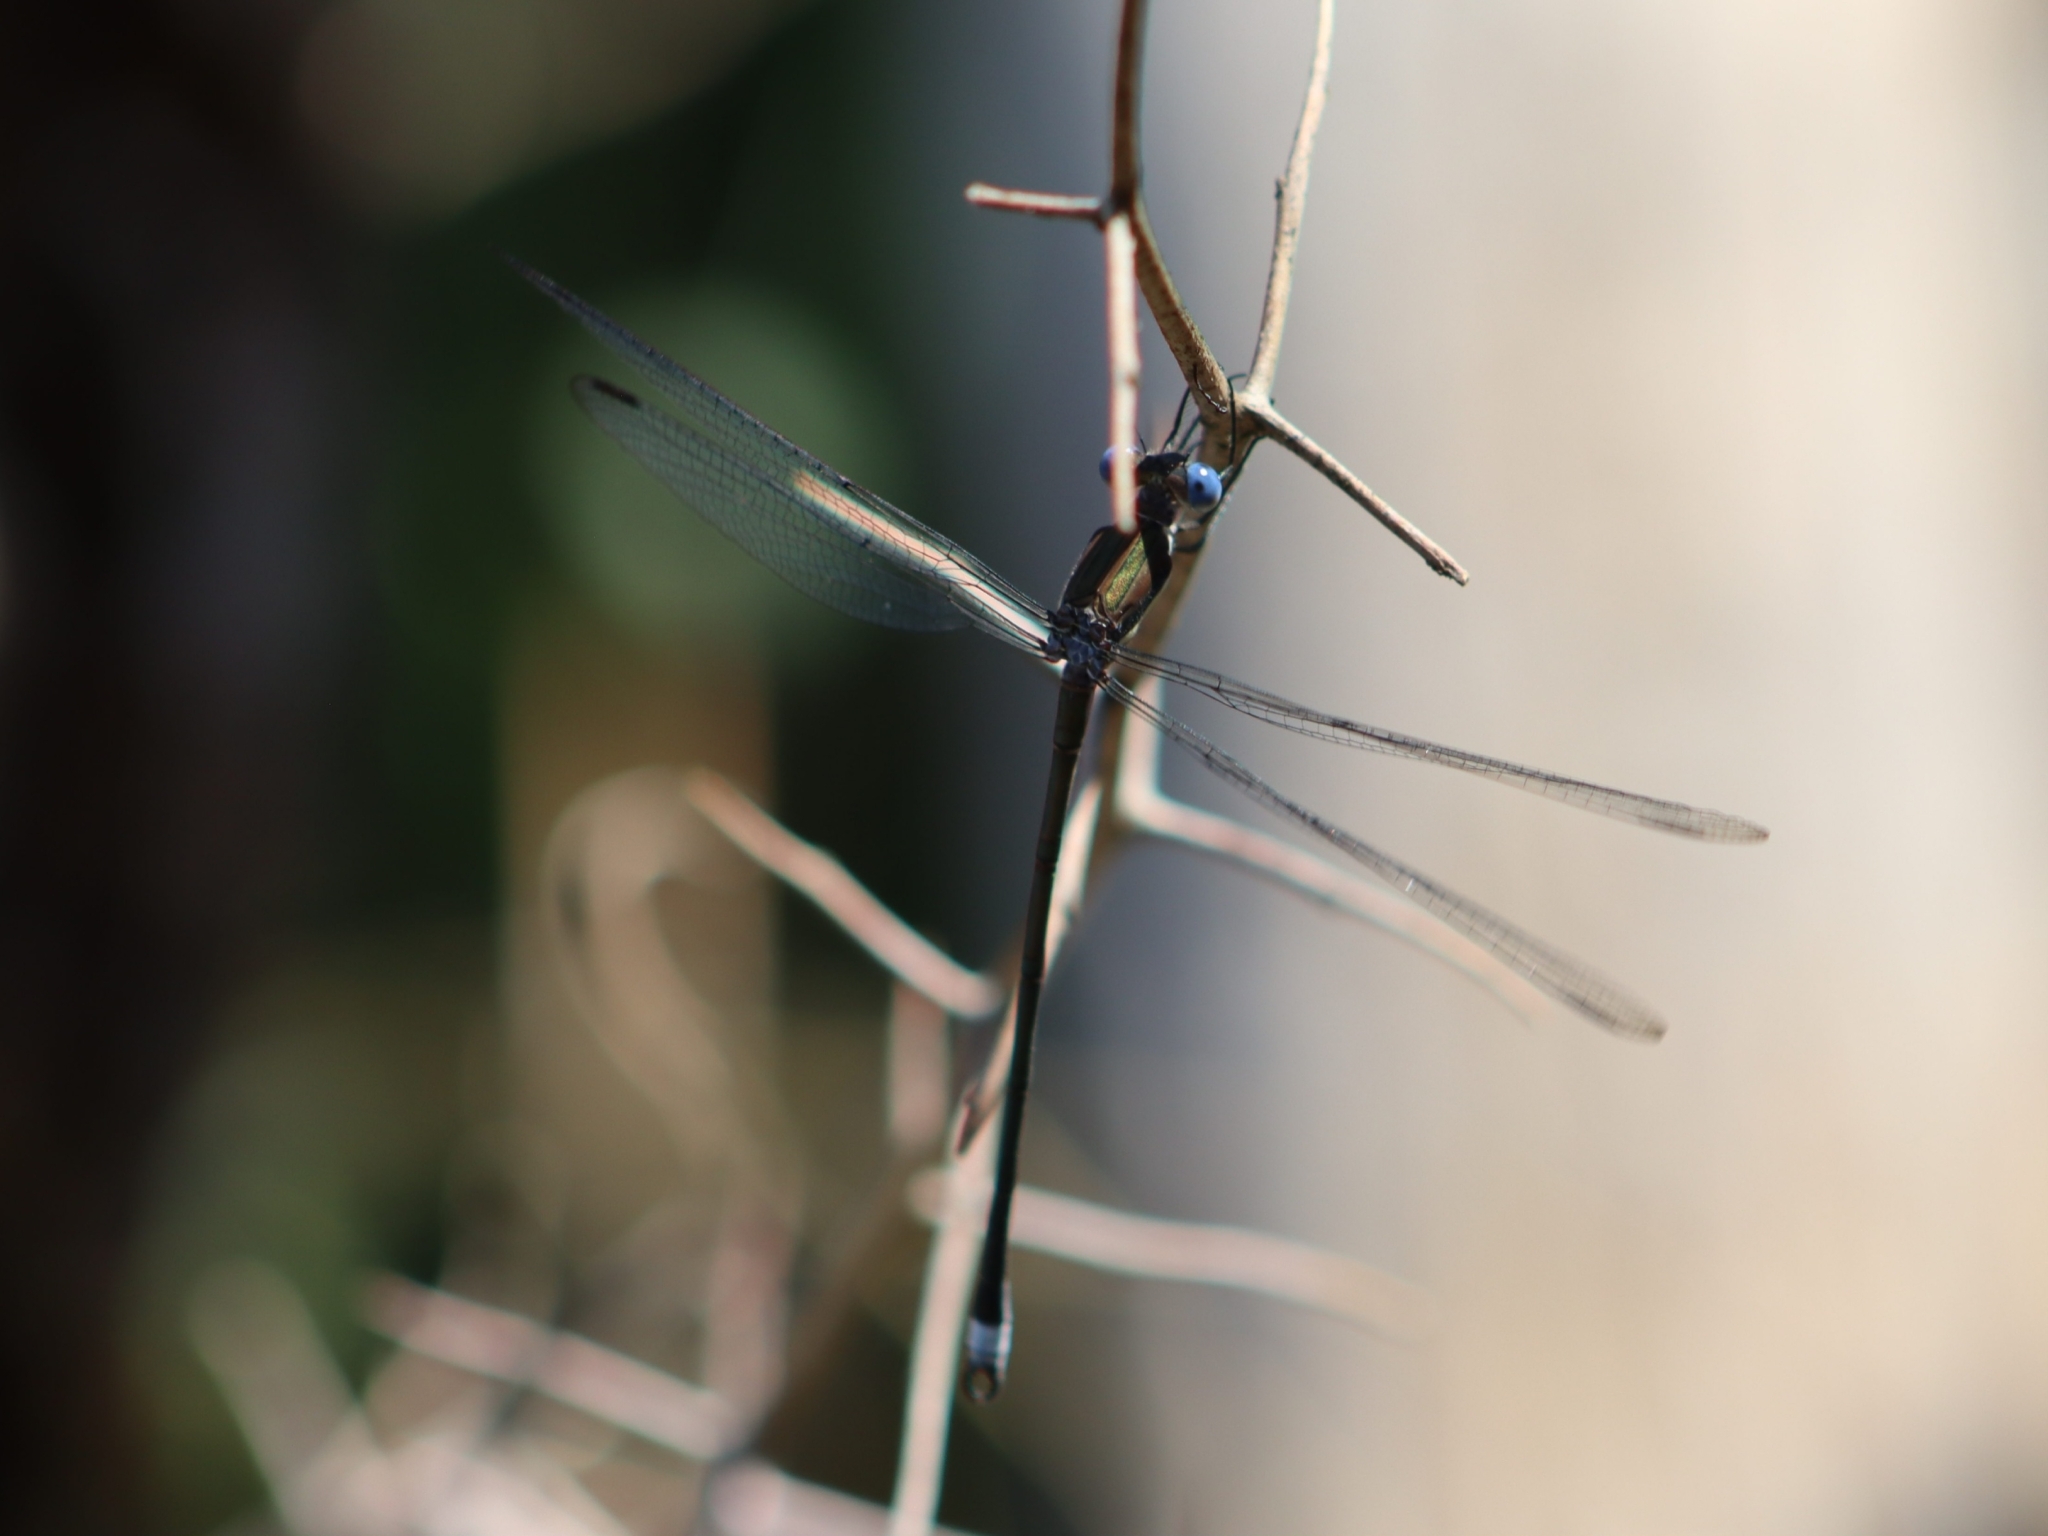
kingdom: Animalia
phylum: Arthropoda
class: Insecta
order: Odonata
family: Lestidae
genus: Archilestes
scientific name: Archilestes grandis
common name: Great spreadwing
